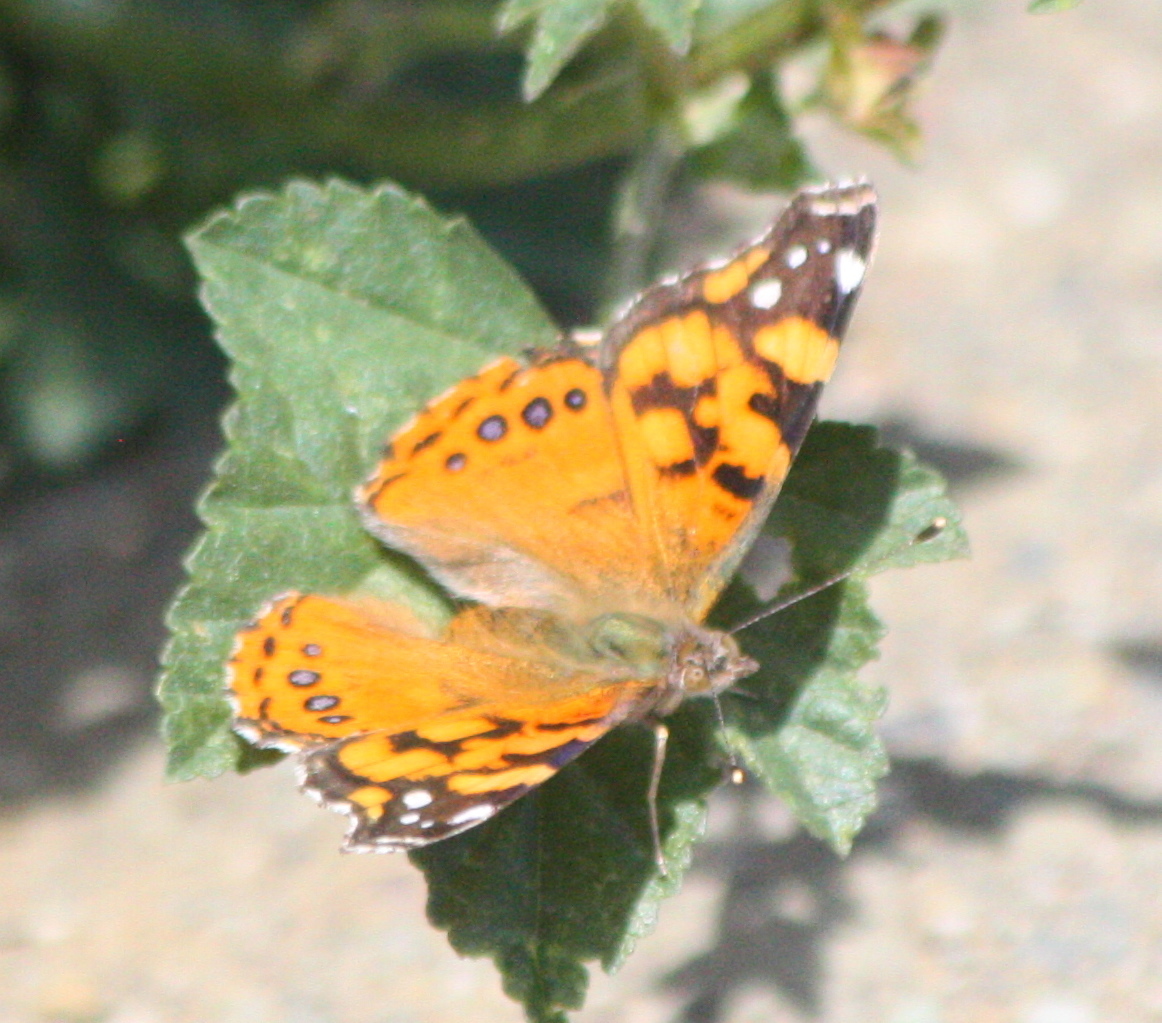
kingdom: Animalia
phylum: Arthropoda
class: Insecta
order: Lepidoptera
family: Nymphalidae
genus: Vanessa
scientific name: Vanessa annabella
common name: West coast lady
